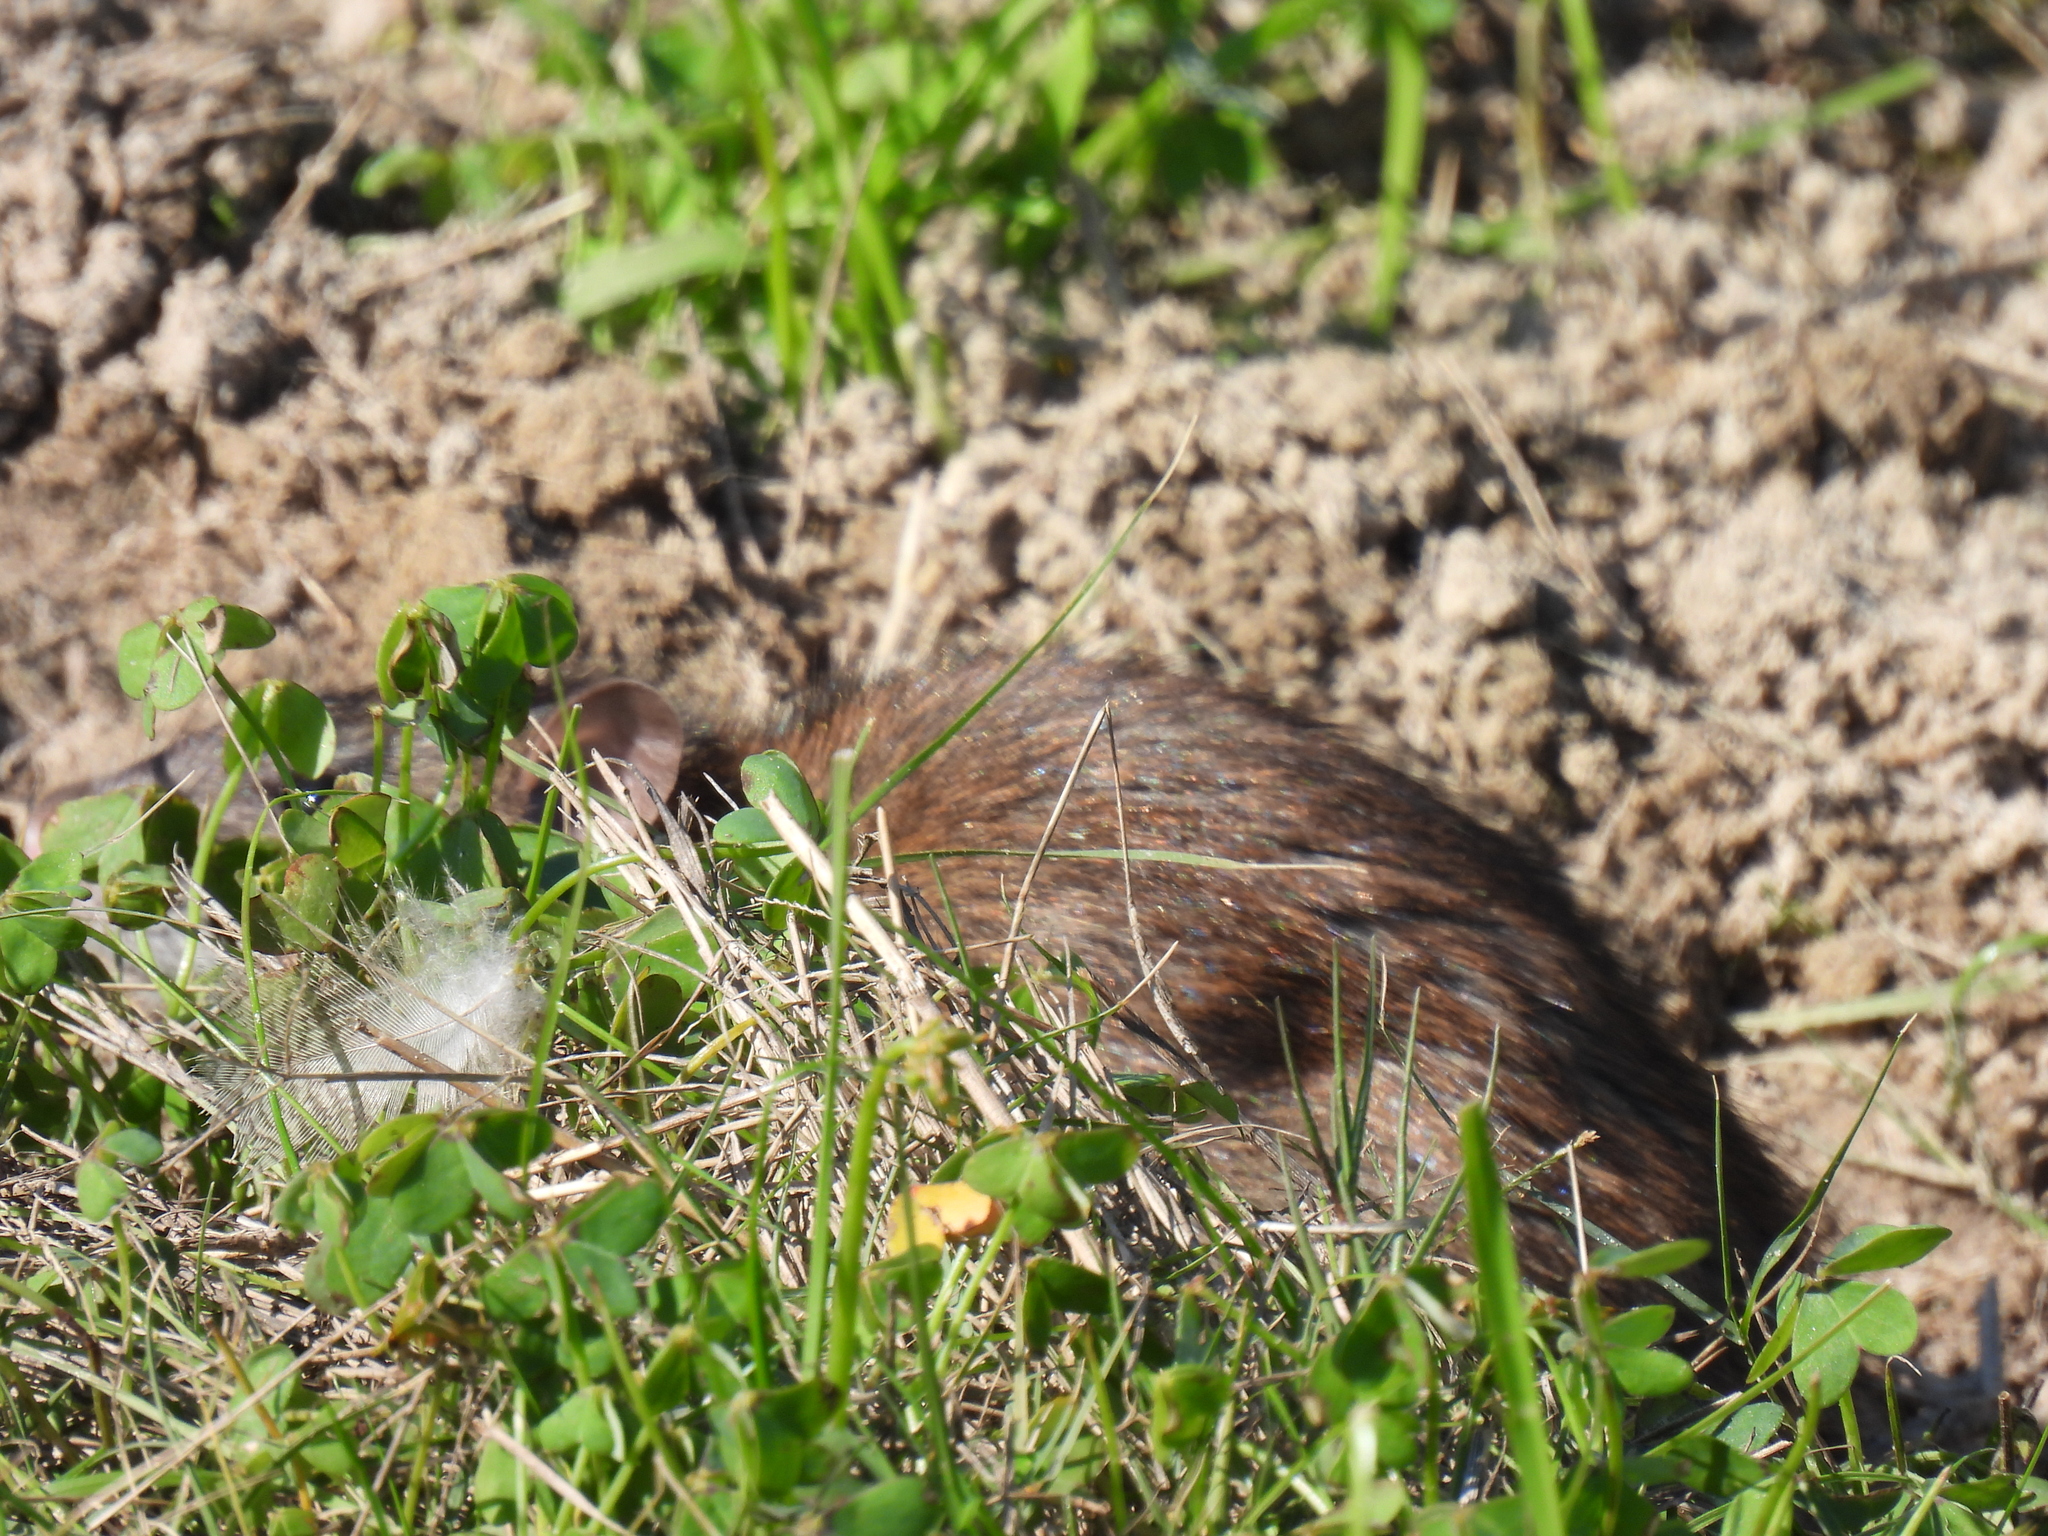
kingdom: Animalia
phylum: Chordata
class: Mammalia
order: Rodentia
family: Muridae
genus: Rattus
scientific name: Rattus norvegicus
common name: Brown rat
